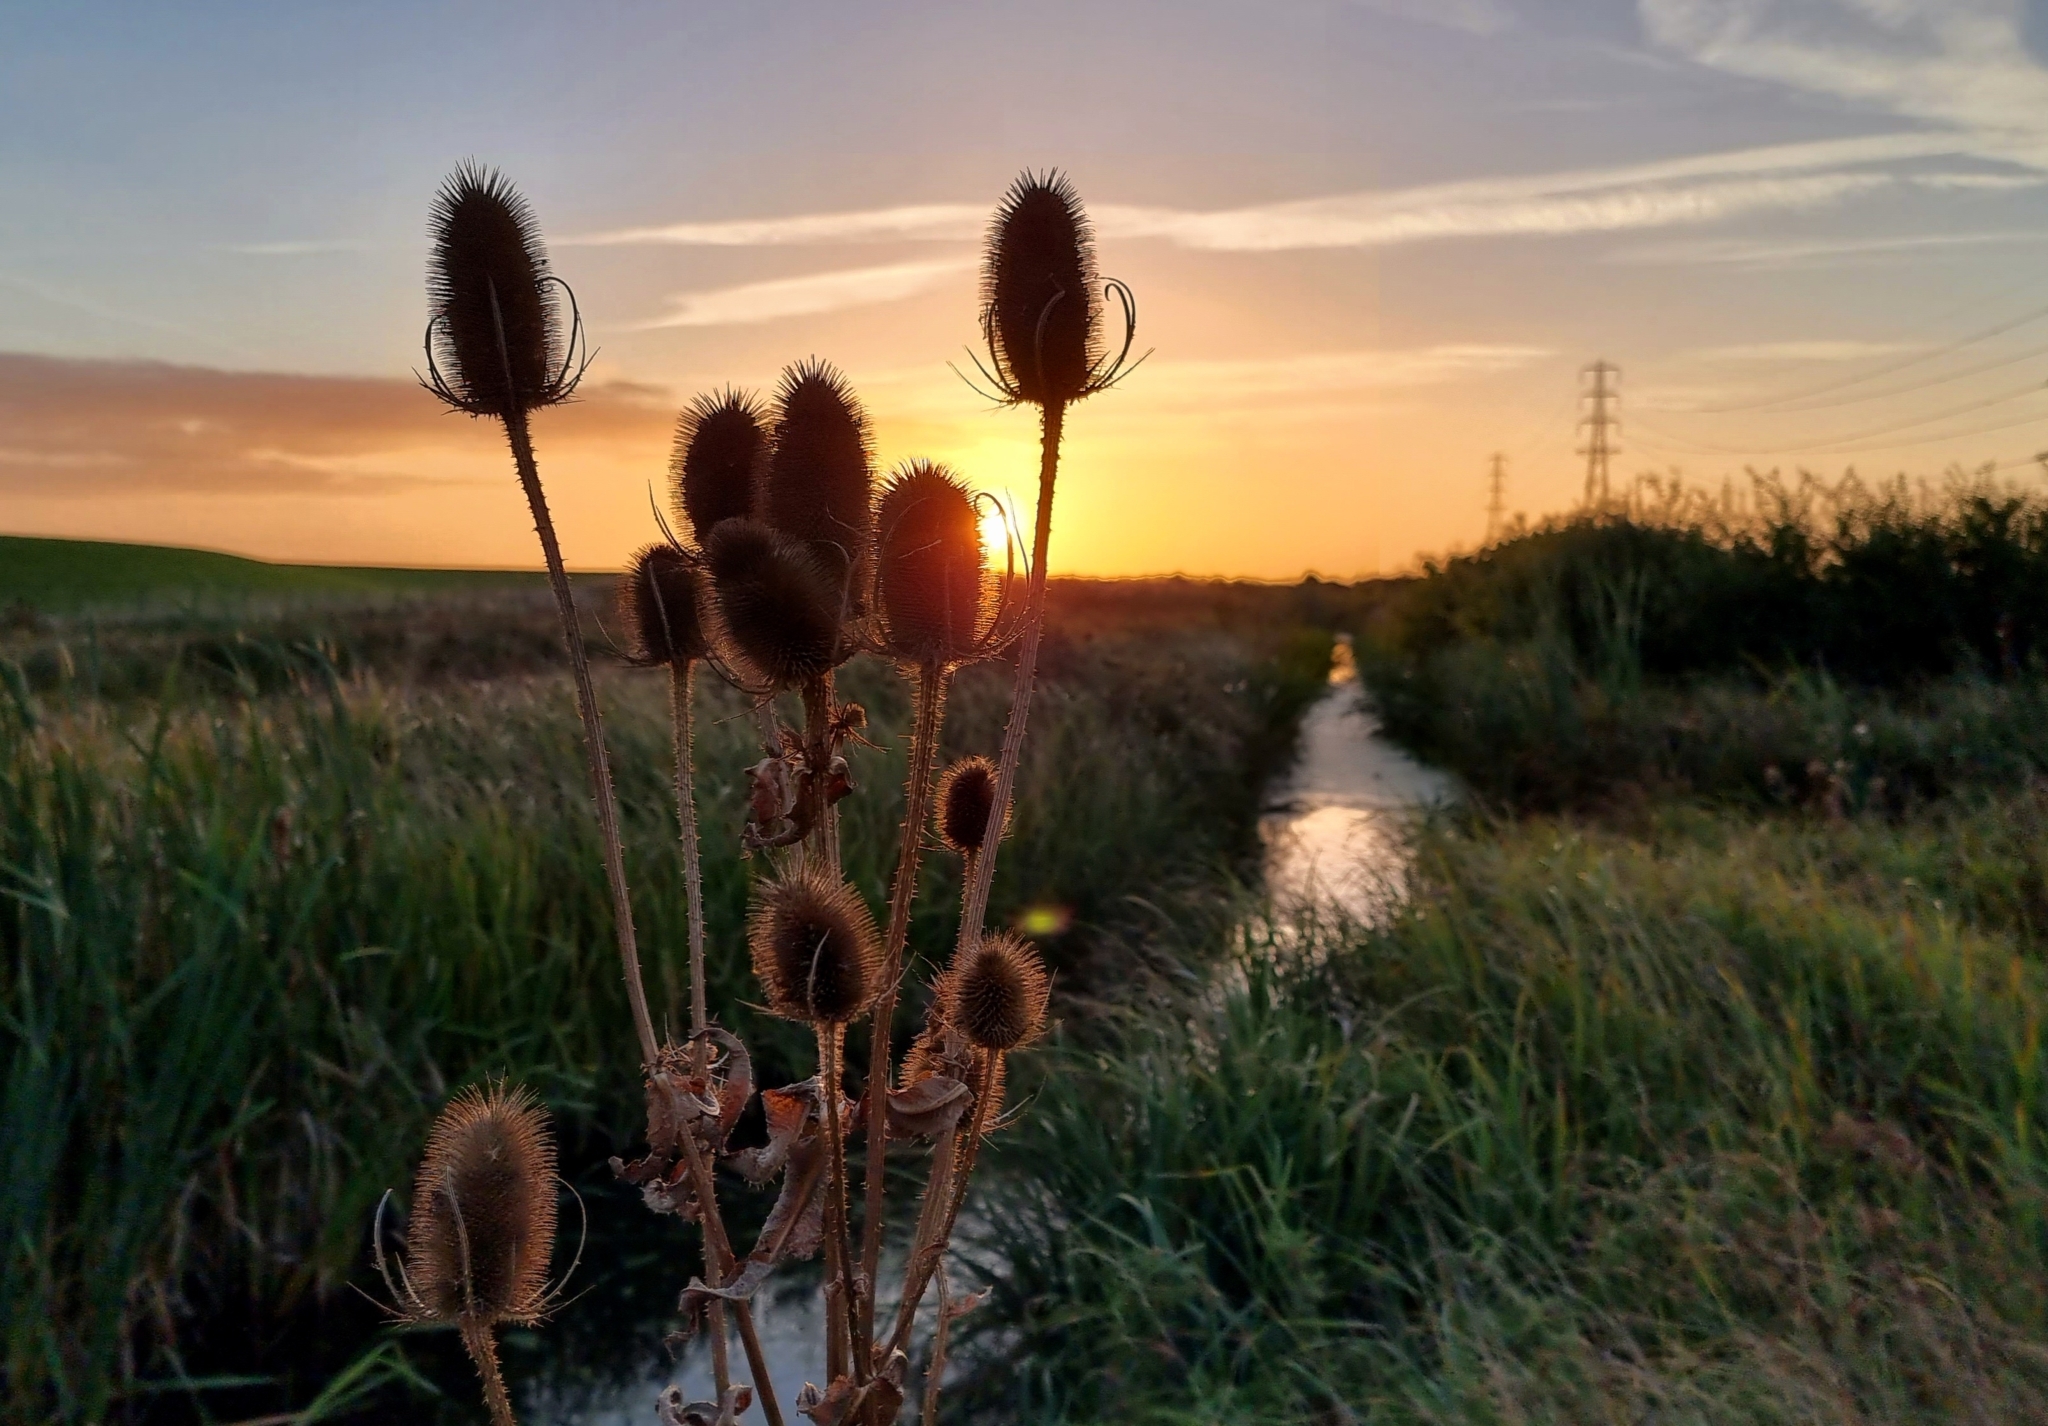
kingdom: Plantae
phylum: Tracheophyta
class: Magnoliopsida
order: Dipsacales
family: Caprifoliaceae
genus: Dipsacus
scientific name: Dipsacus fullonum
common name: Teasel
